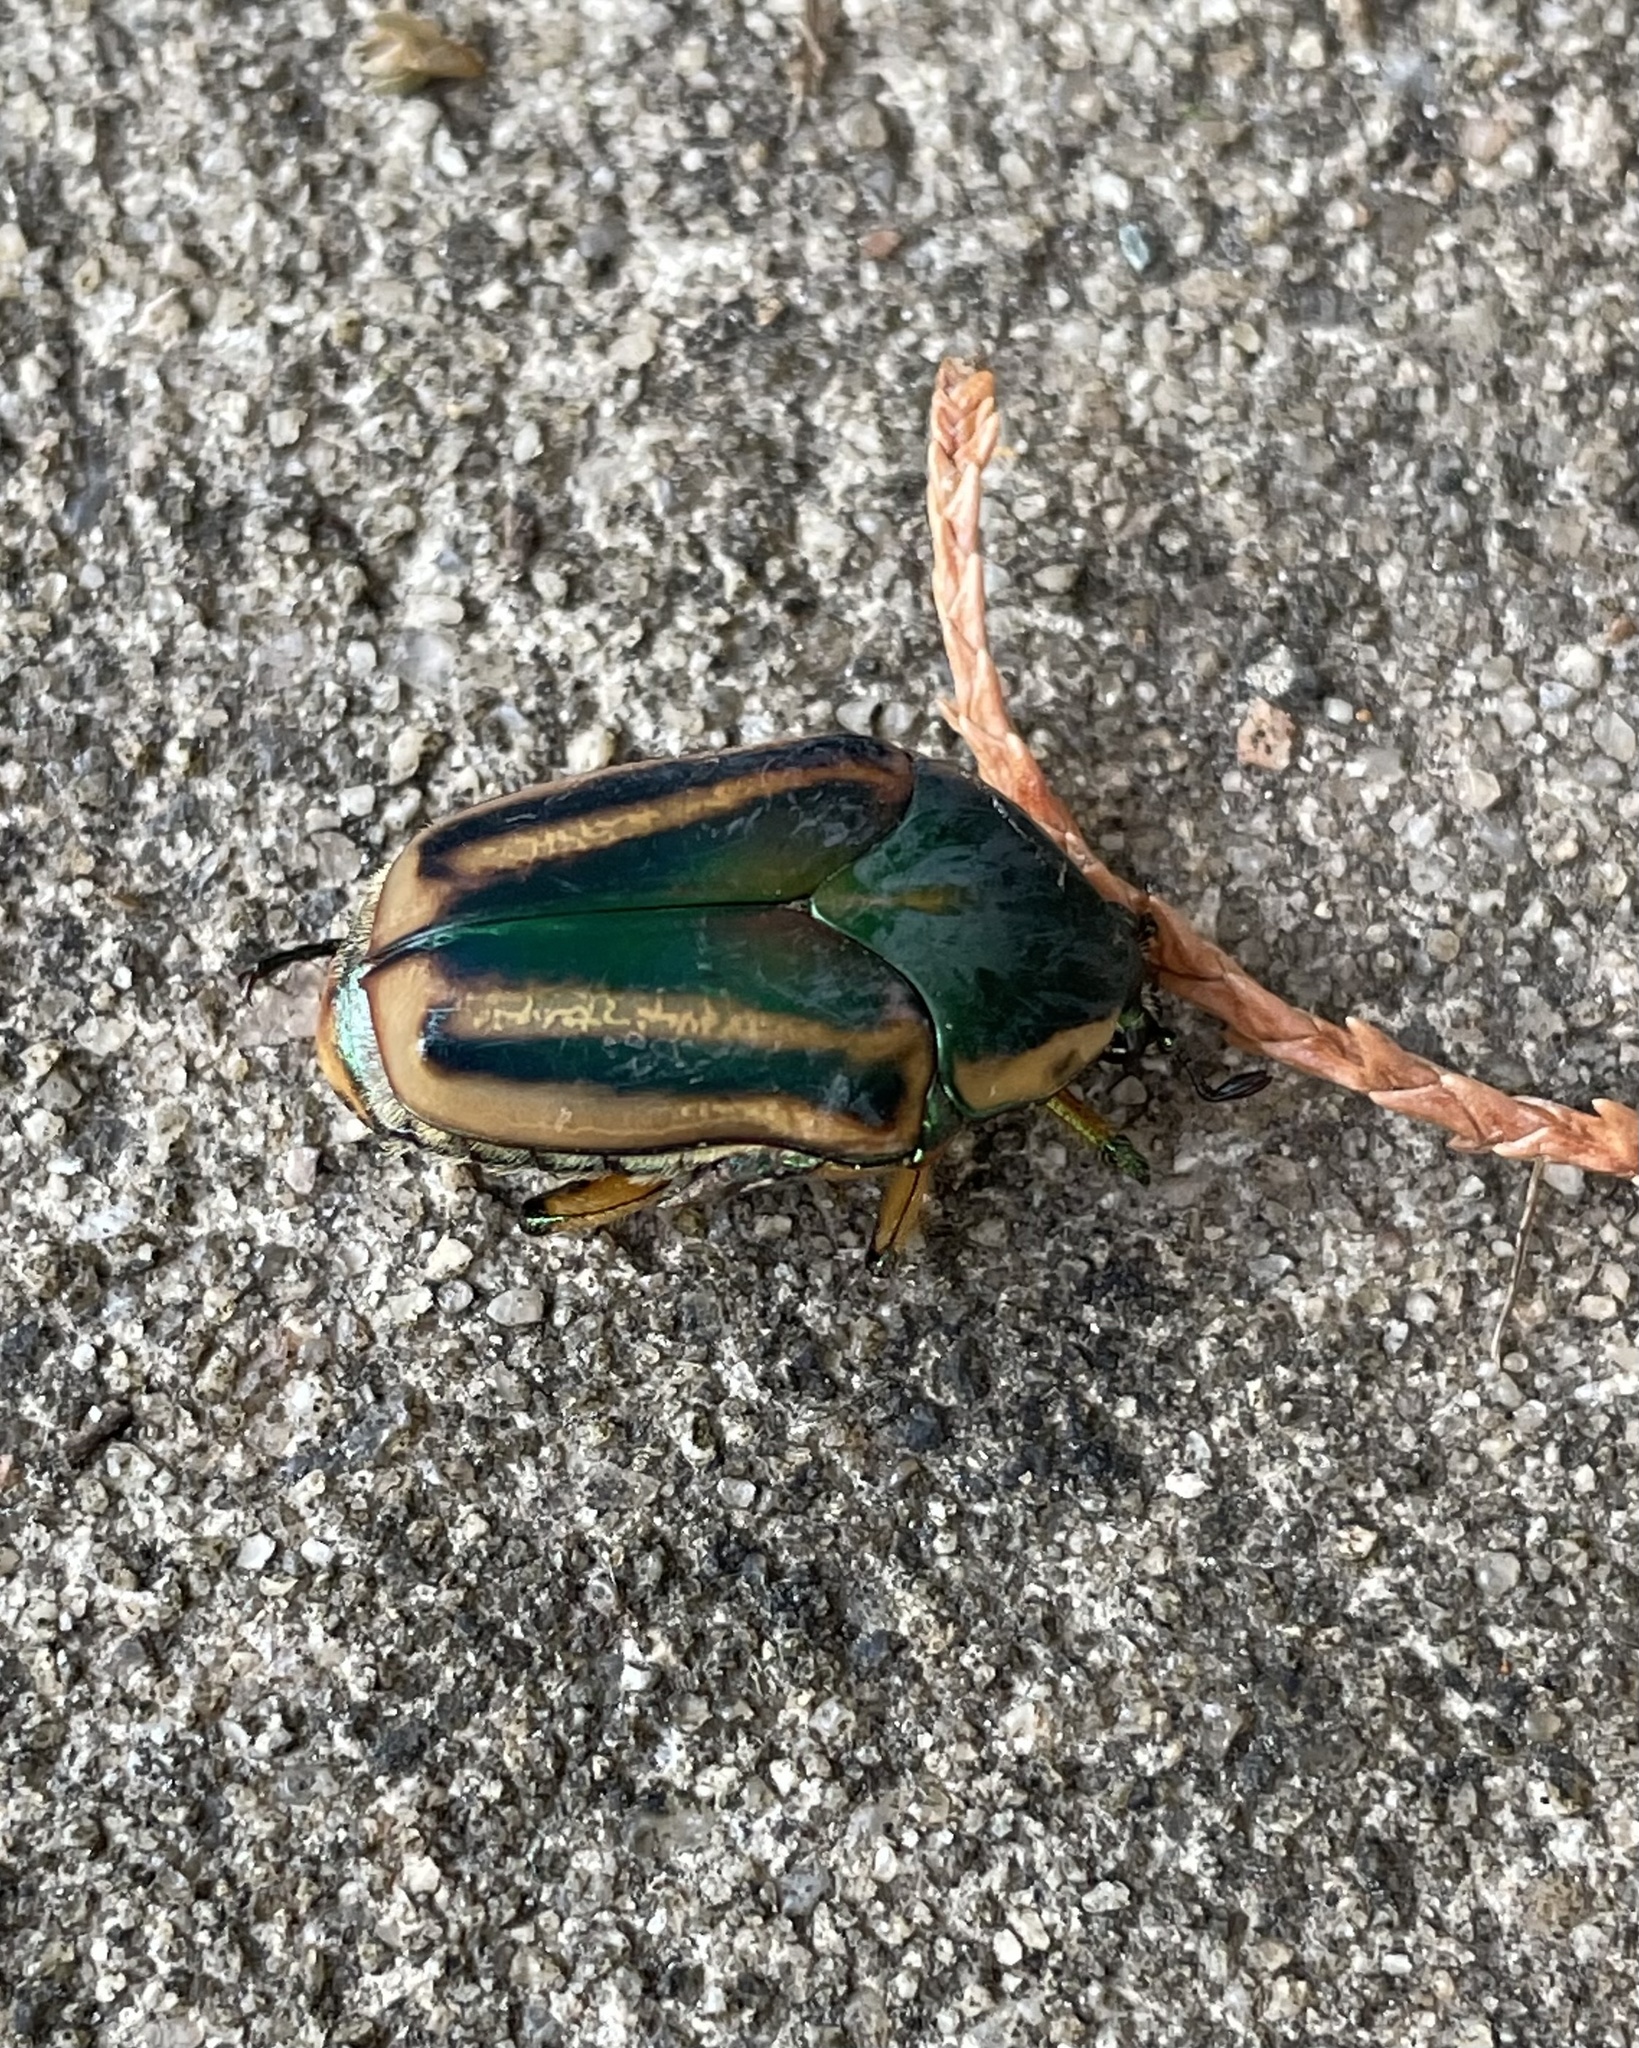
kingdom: Animalia
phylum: Arthropoda
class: Insecta
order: Coleoptera
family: Scarabaeidae
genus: Cotinis
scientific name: Cotinis nitida
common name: Common green june beetle
